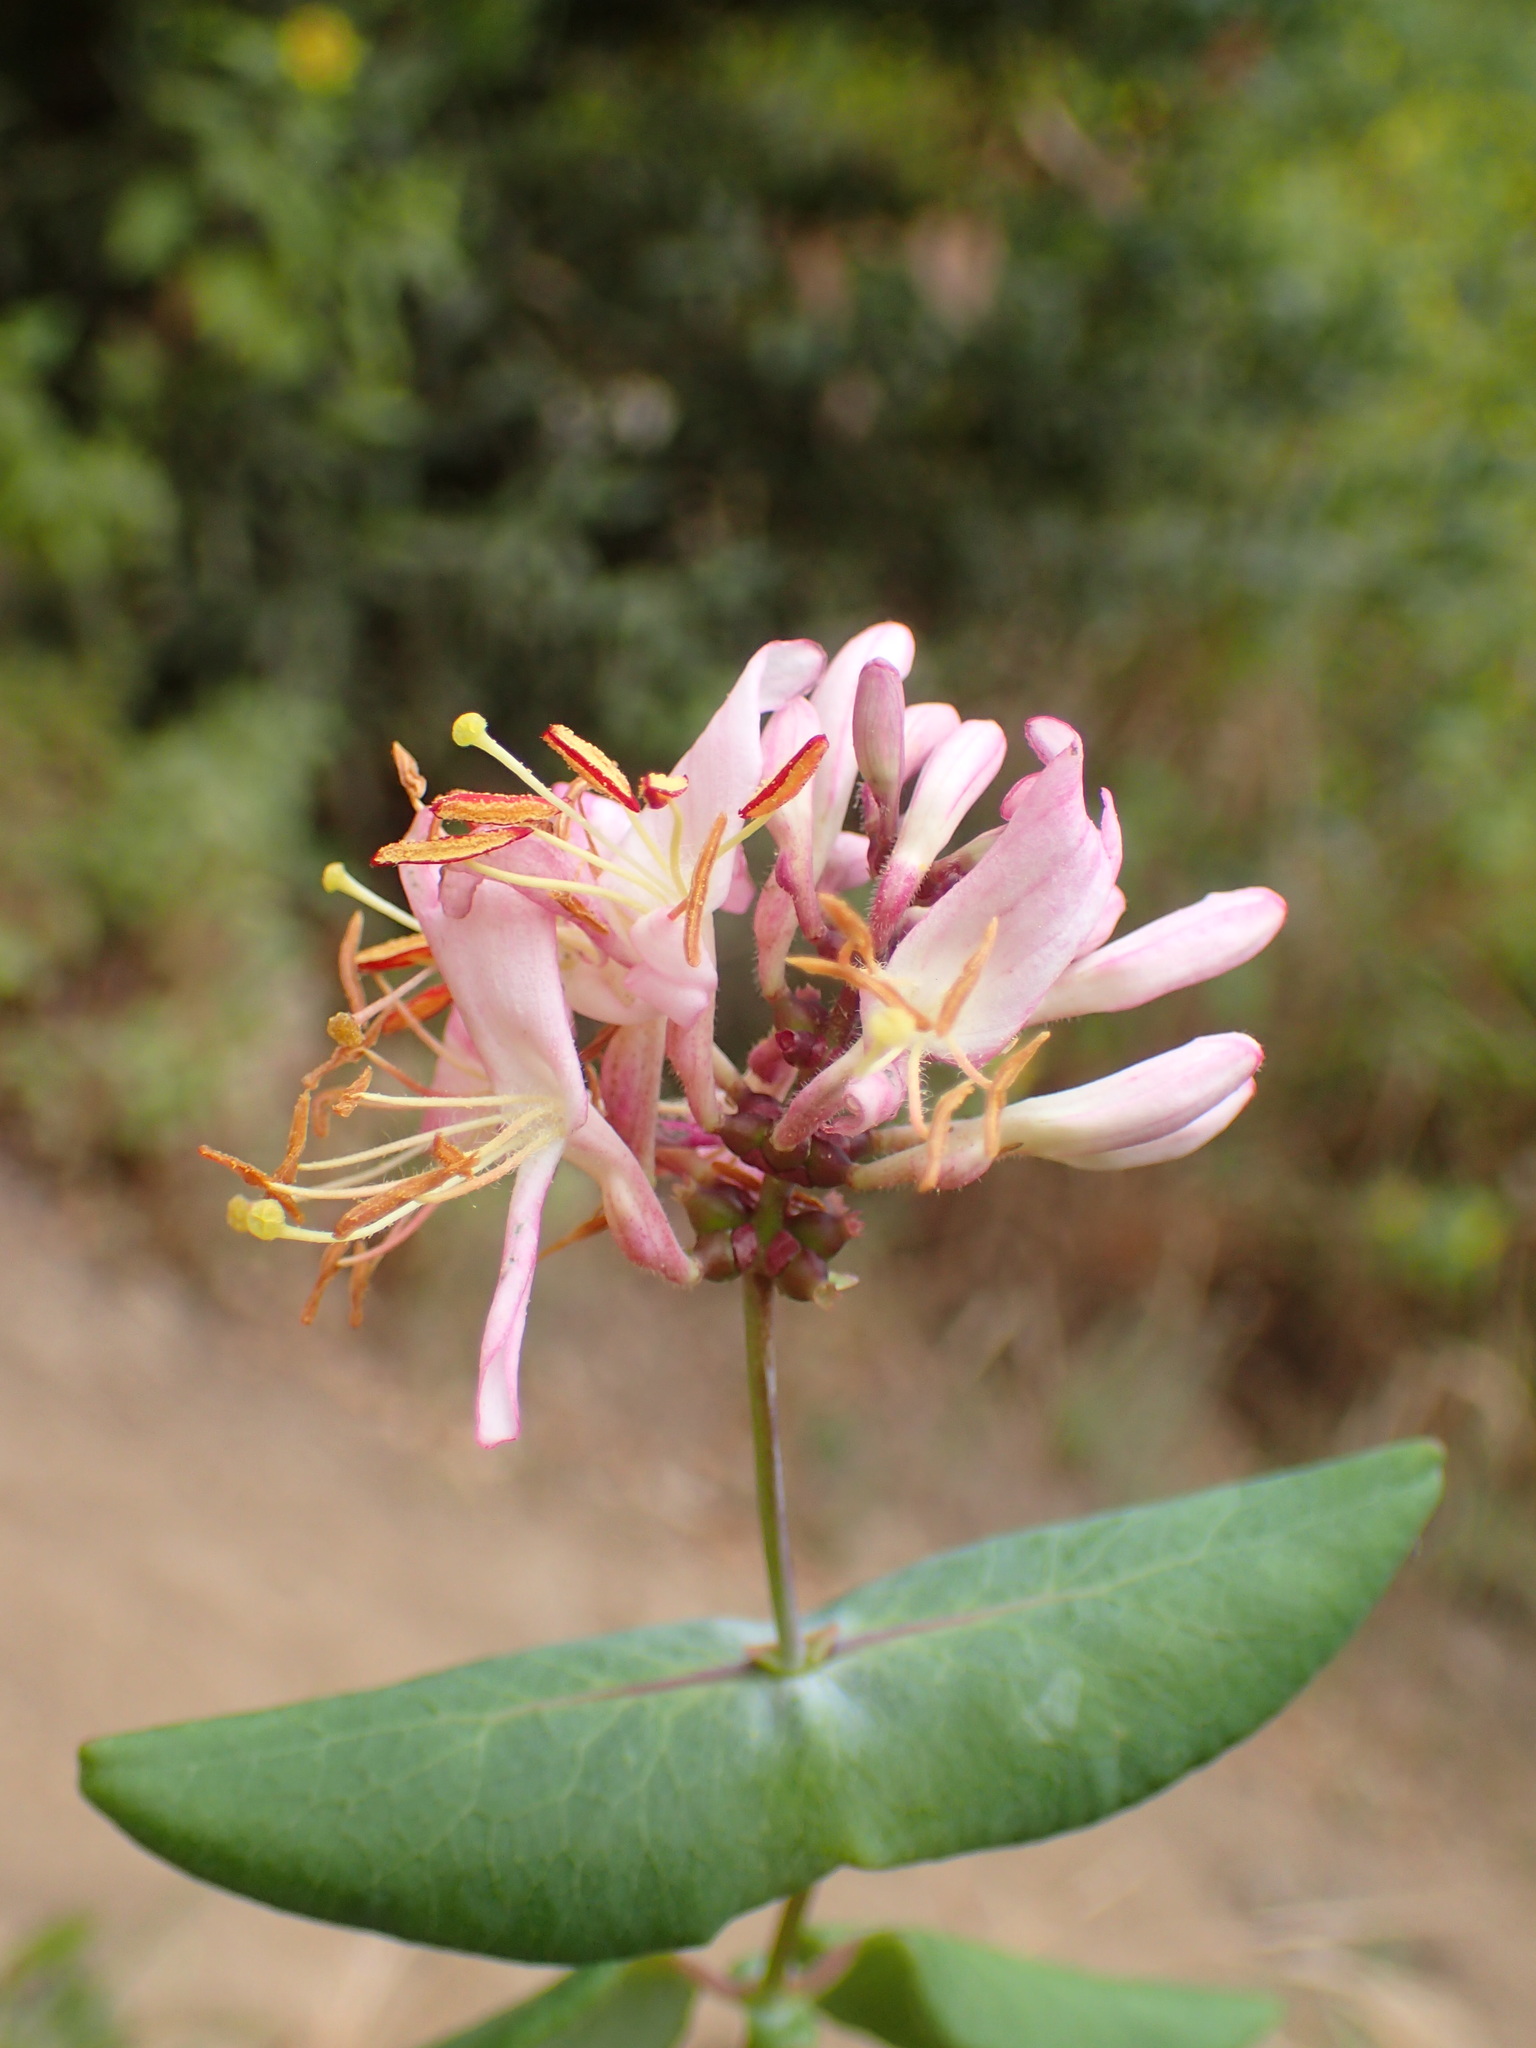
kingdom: Plantae
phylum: Tracheophyta
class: Magnoliopsida
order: Dipsacales
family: Caprifoliaceae
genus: Lonicera
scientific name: Lonicera hispidula
